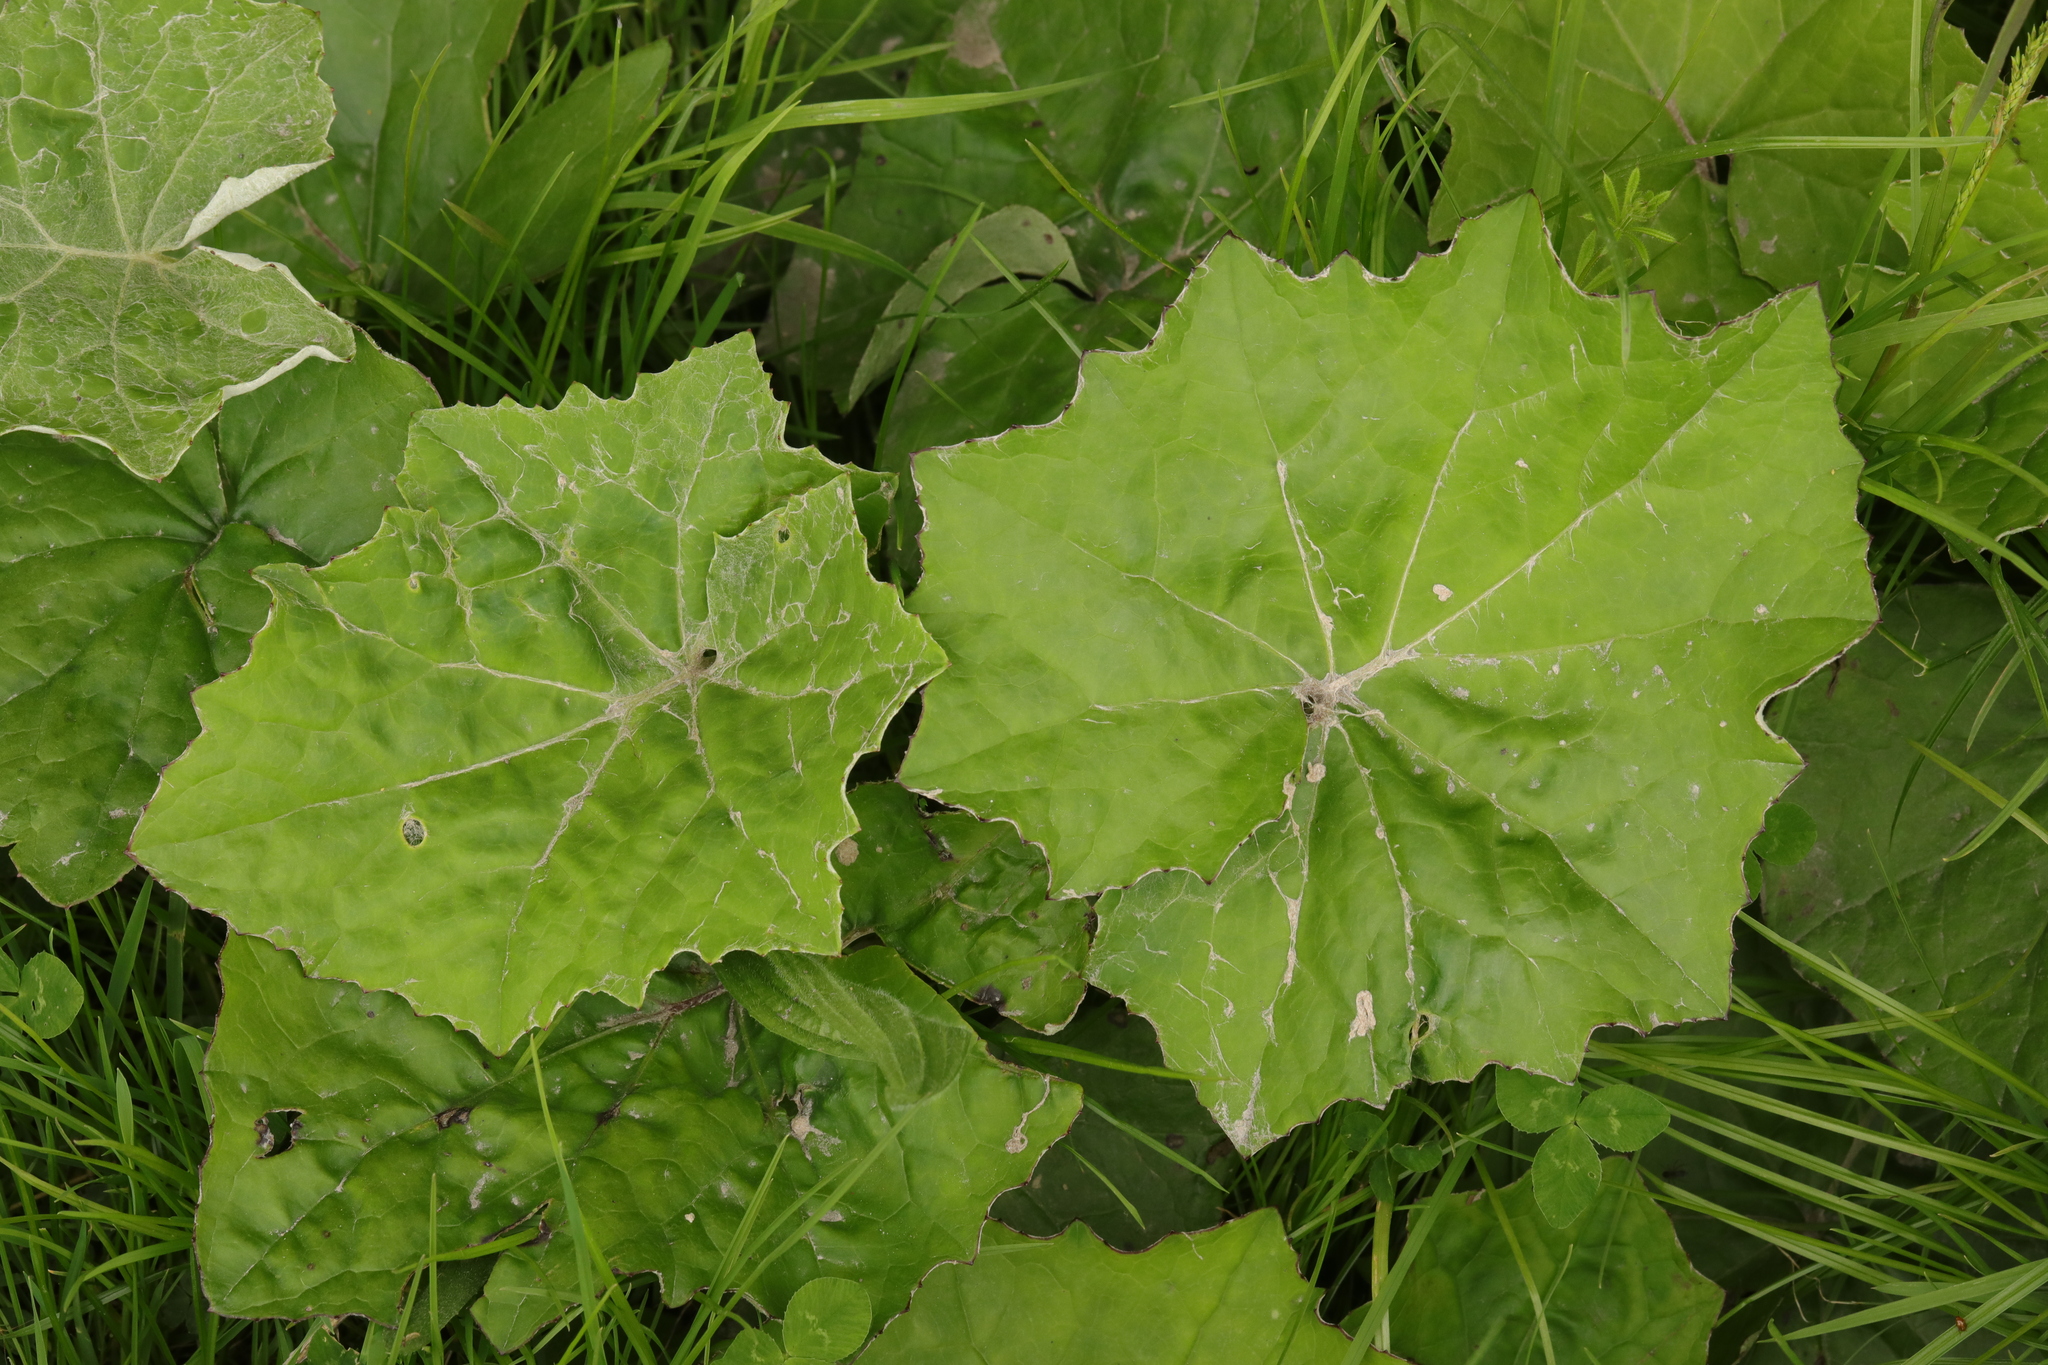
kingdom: Plantae
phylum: Tracheophyta
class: Magnoliopsida
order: Asterales
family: Asteraceae
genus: Tussilago
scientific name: Tussilago farfara
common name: Coltsfoot
